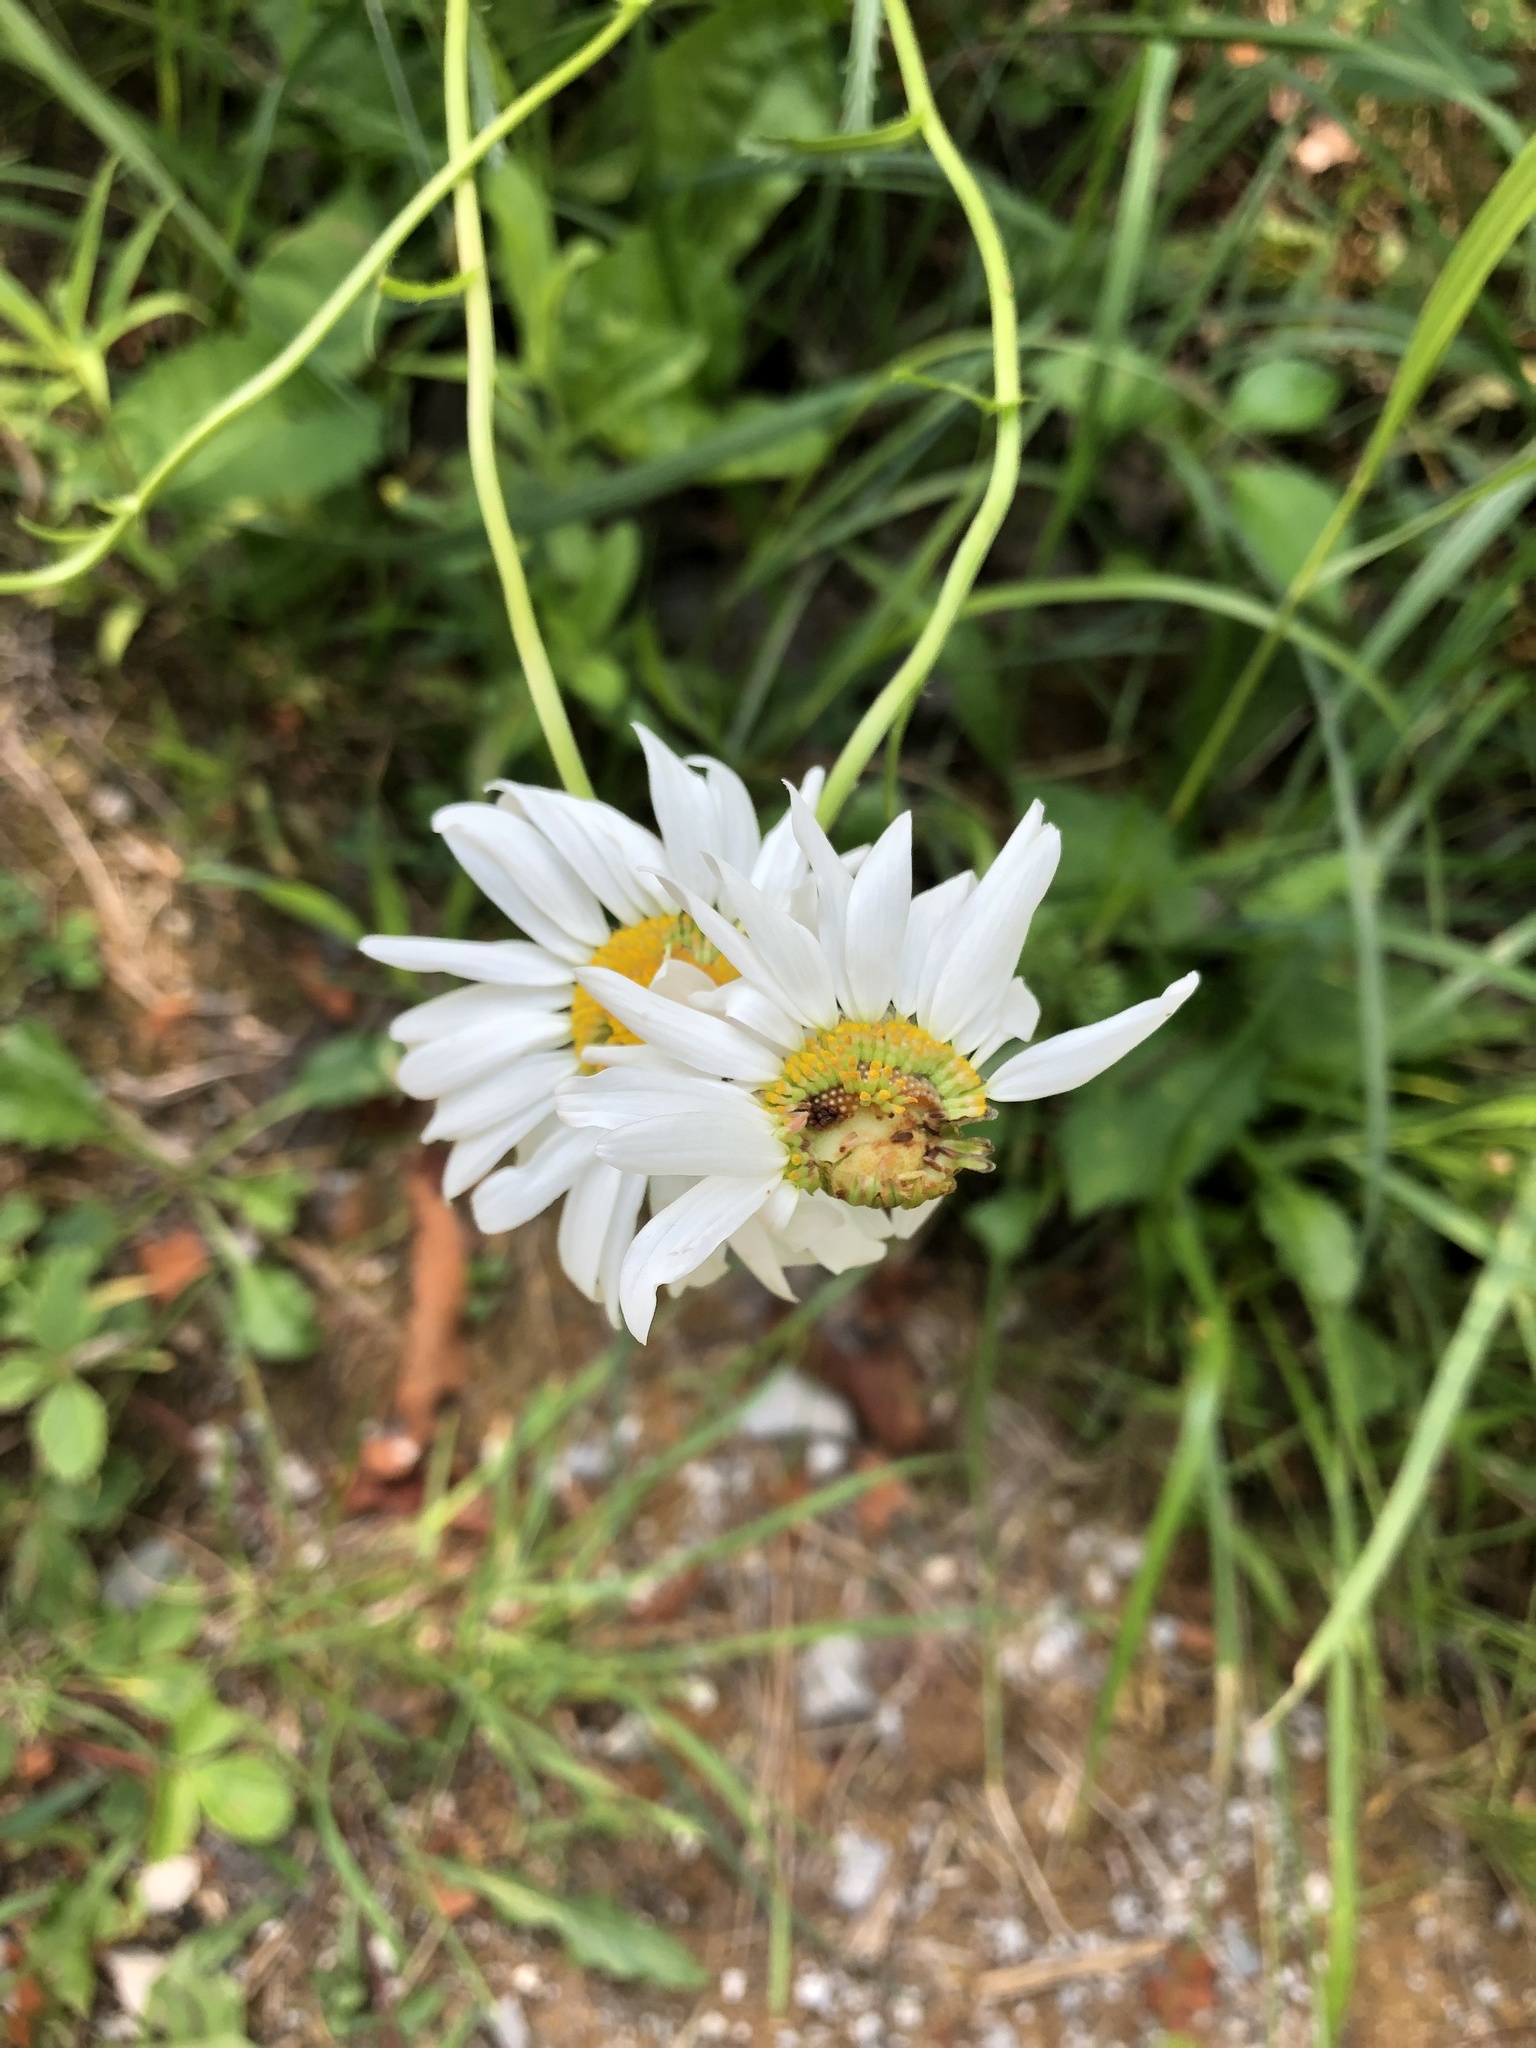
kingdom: Plantae
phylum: Tracheophyta
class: Magnoliopsida
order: Asterales
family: Asteraceae
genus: Leucanthemum
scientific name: Leucanthemum vulgare
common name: Oxeye daisy
